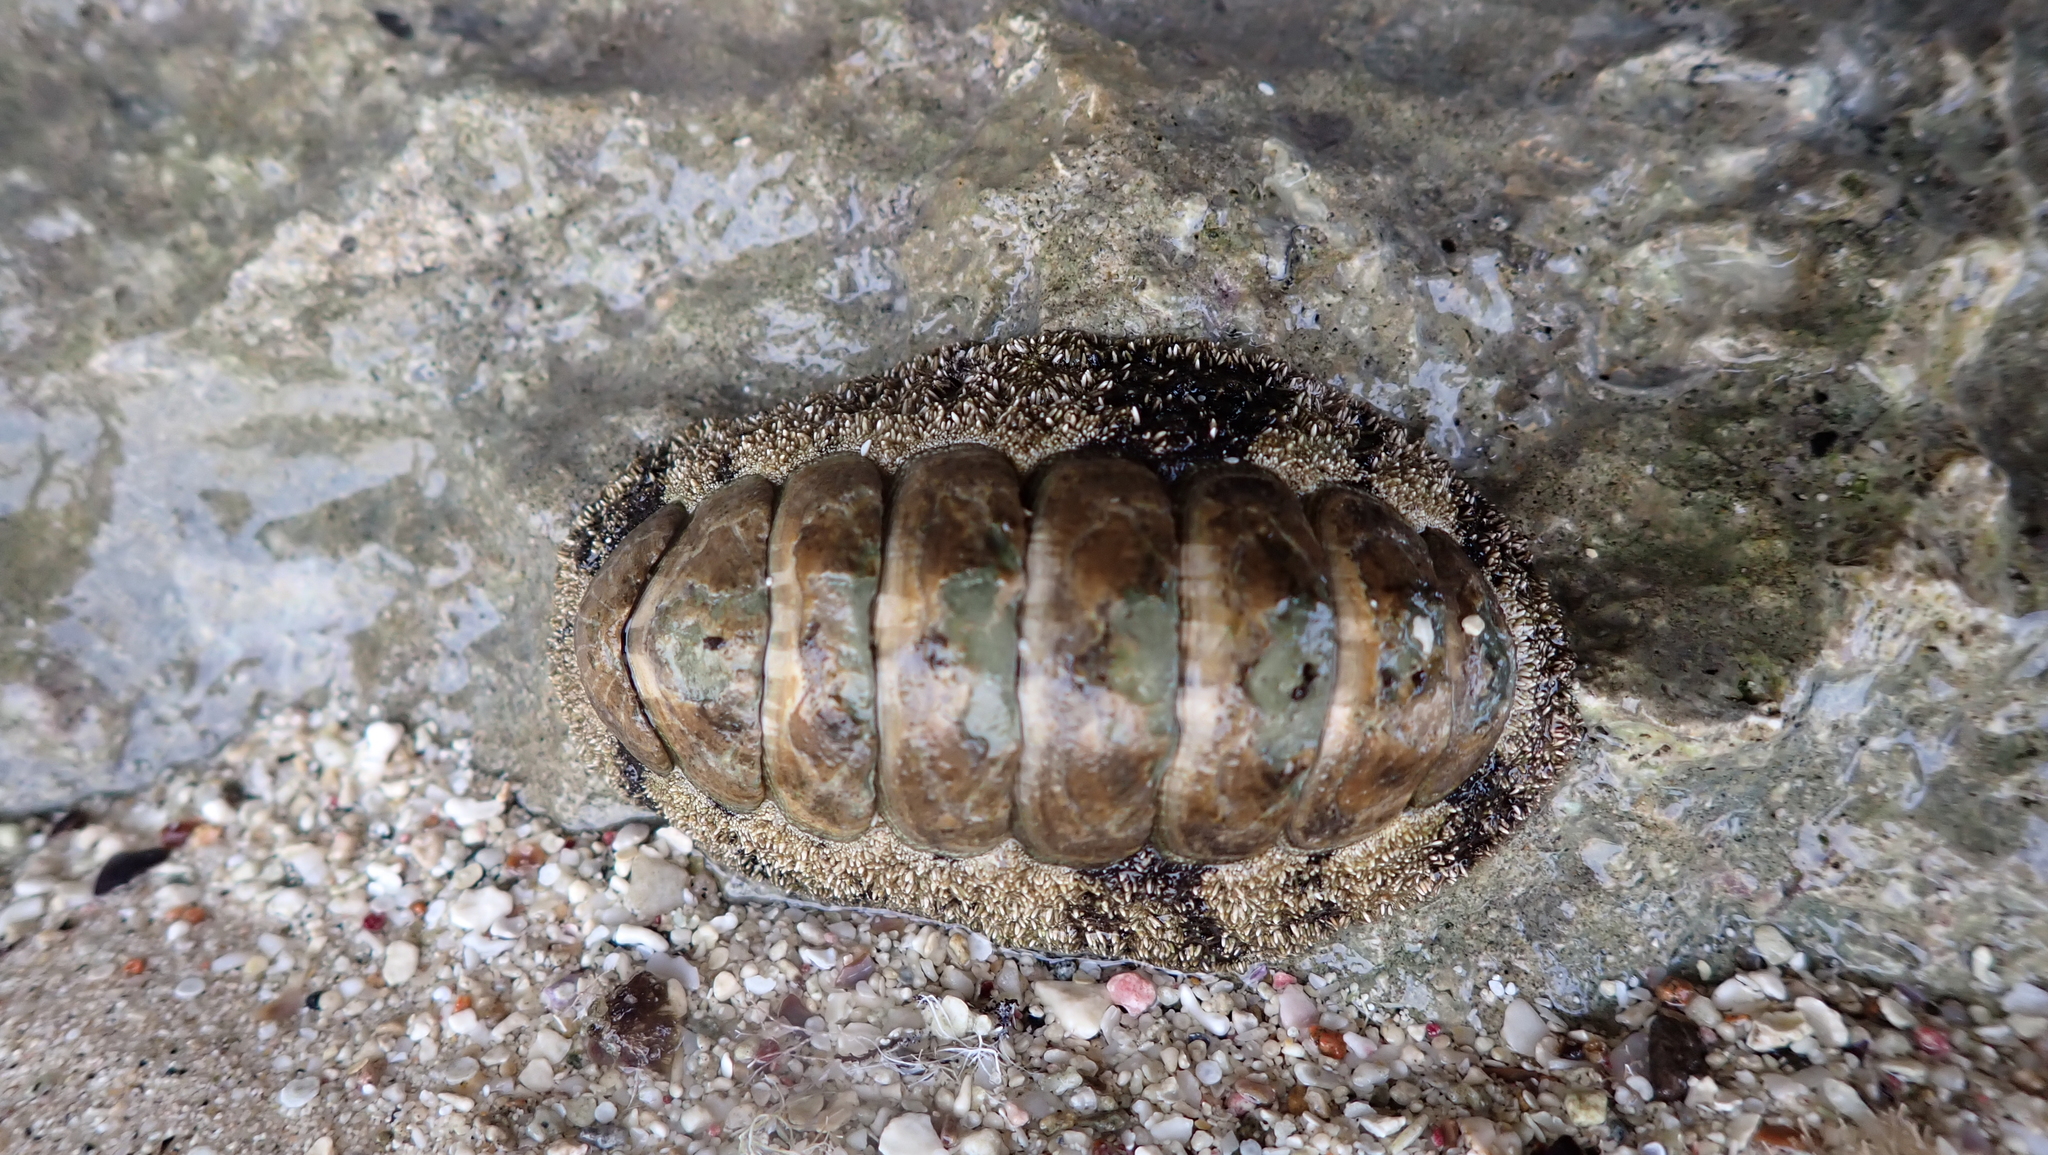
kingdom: Animalia
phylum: Mollusca
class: Polyplacophora
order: Chitonida
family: Chitonidae
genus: Acanthopleura
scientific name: Acanthopleura vaillantii
